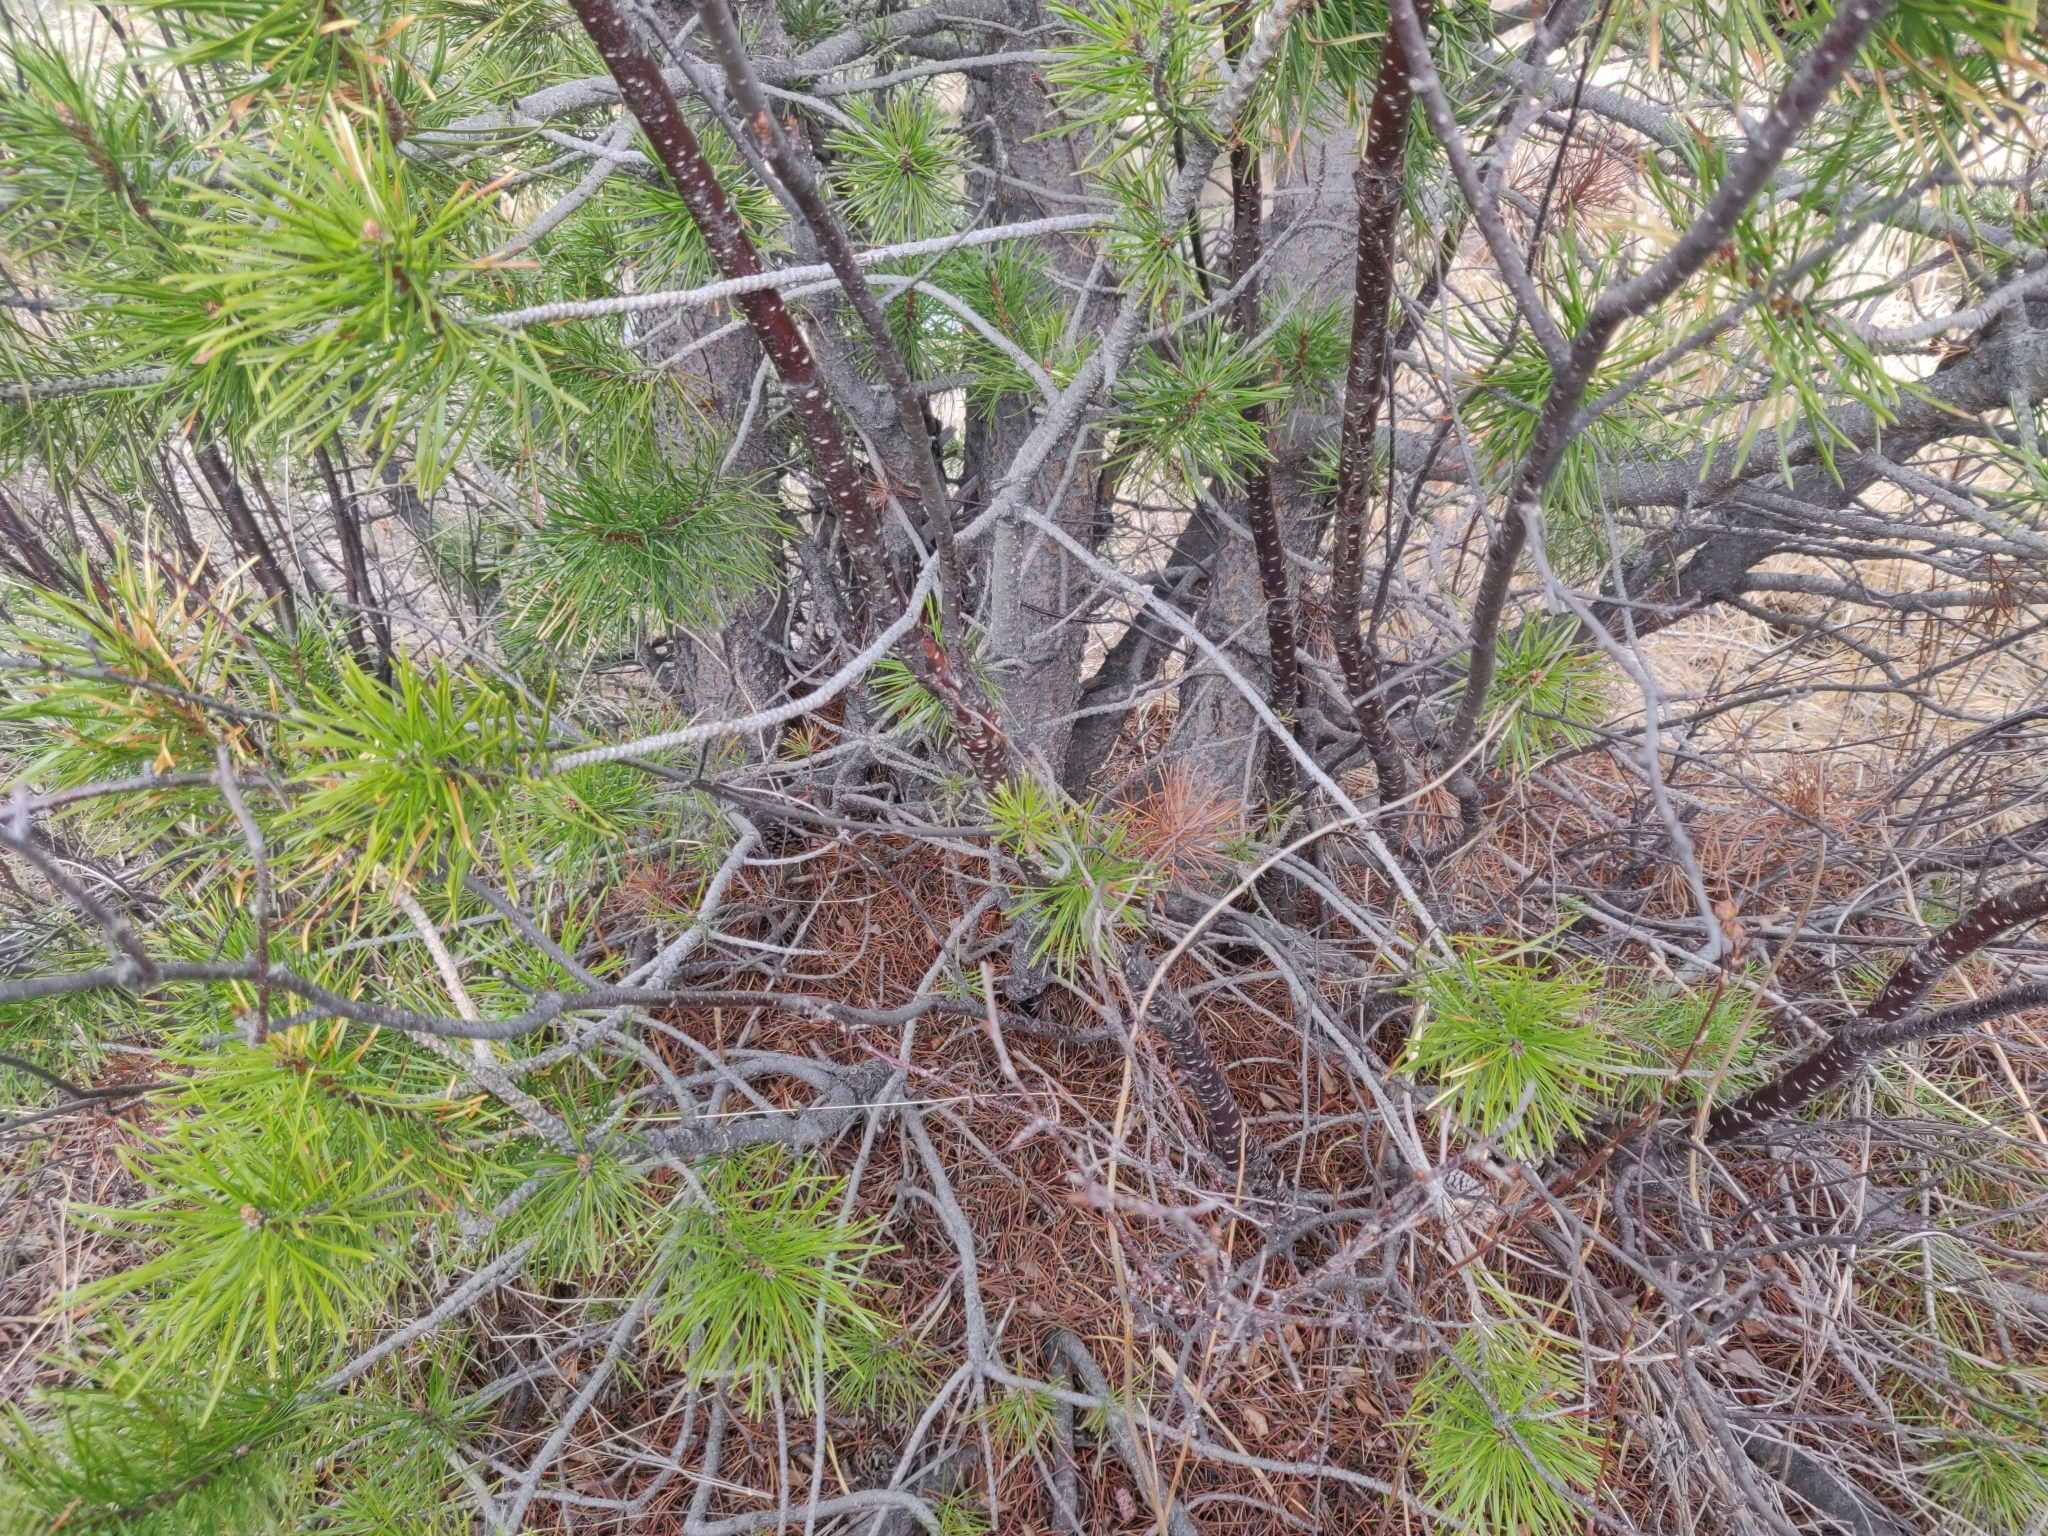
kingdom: Plantae
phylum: Tracheophyta
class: Pinopsida
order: Pinales
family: Pinaceae
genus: Pinus
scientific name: Pinus contorta
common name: Lodgepole pine
